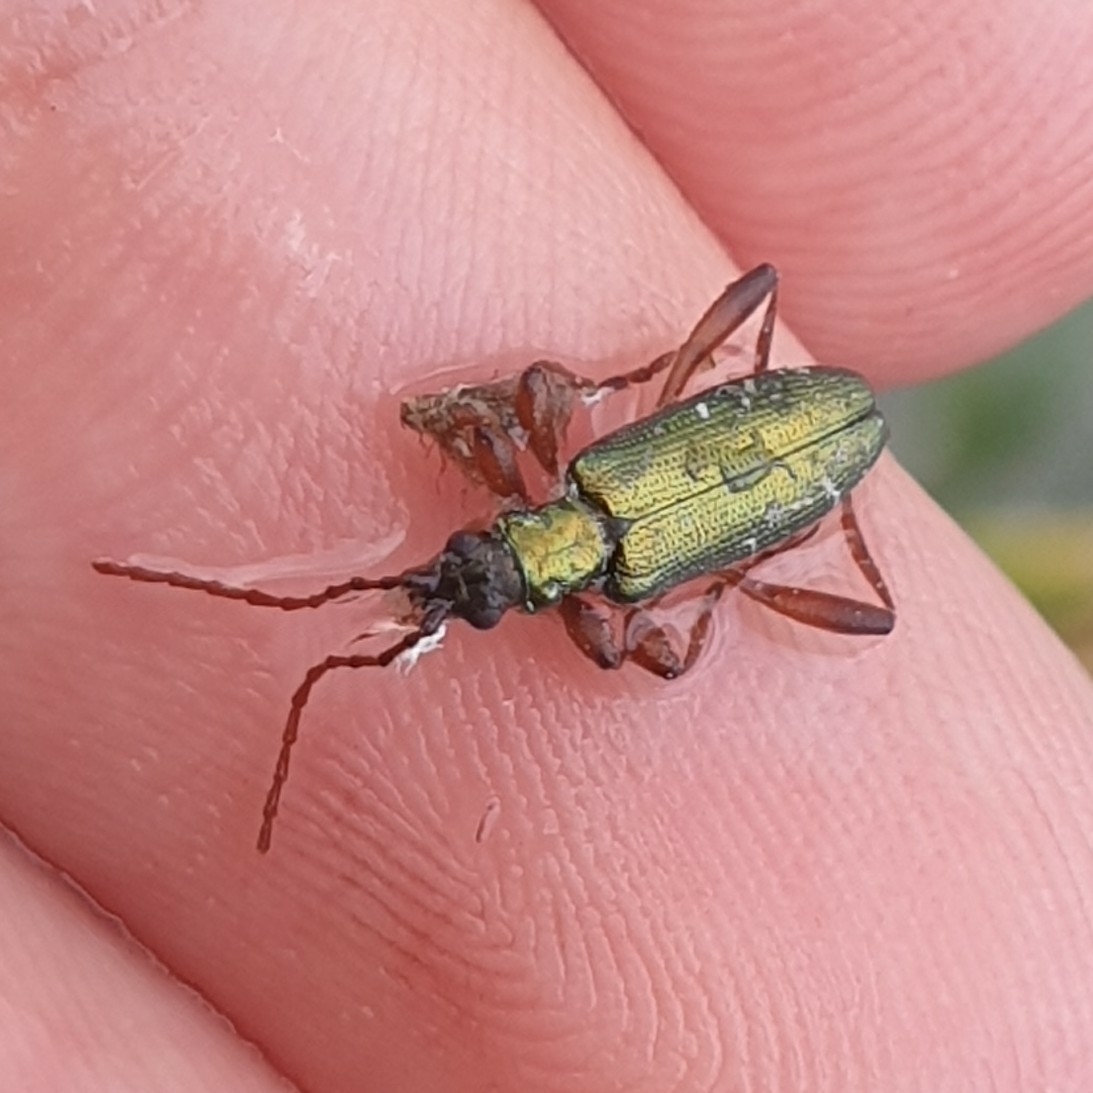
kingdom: Animalia
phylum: Arthropoda
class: Insecta
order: Coleoptera
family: Chrysomelidae
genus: Donacia
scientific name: Donacia clavipes
